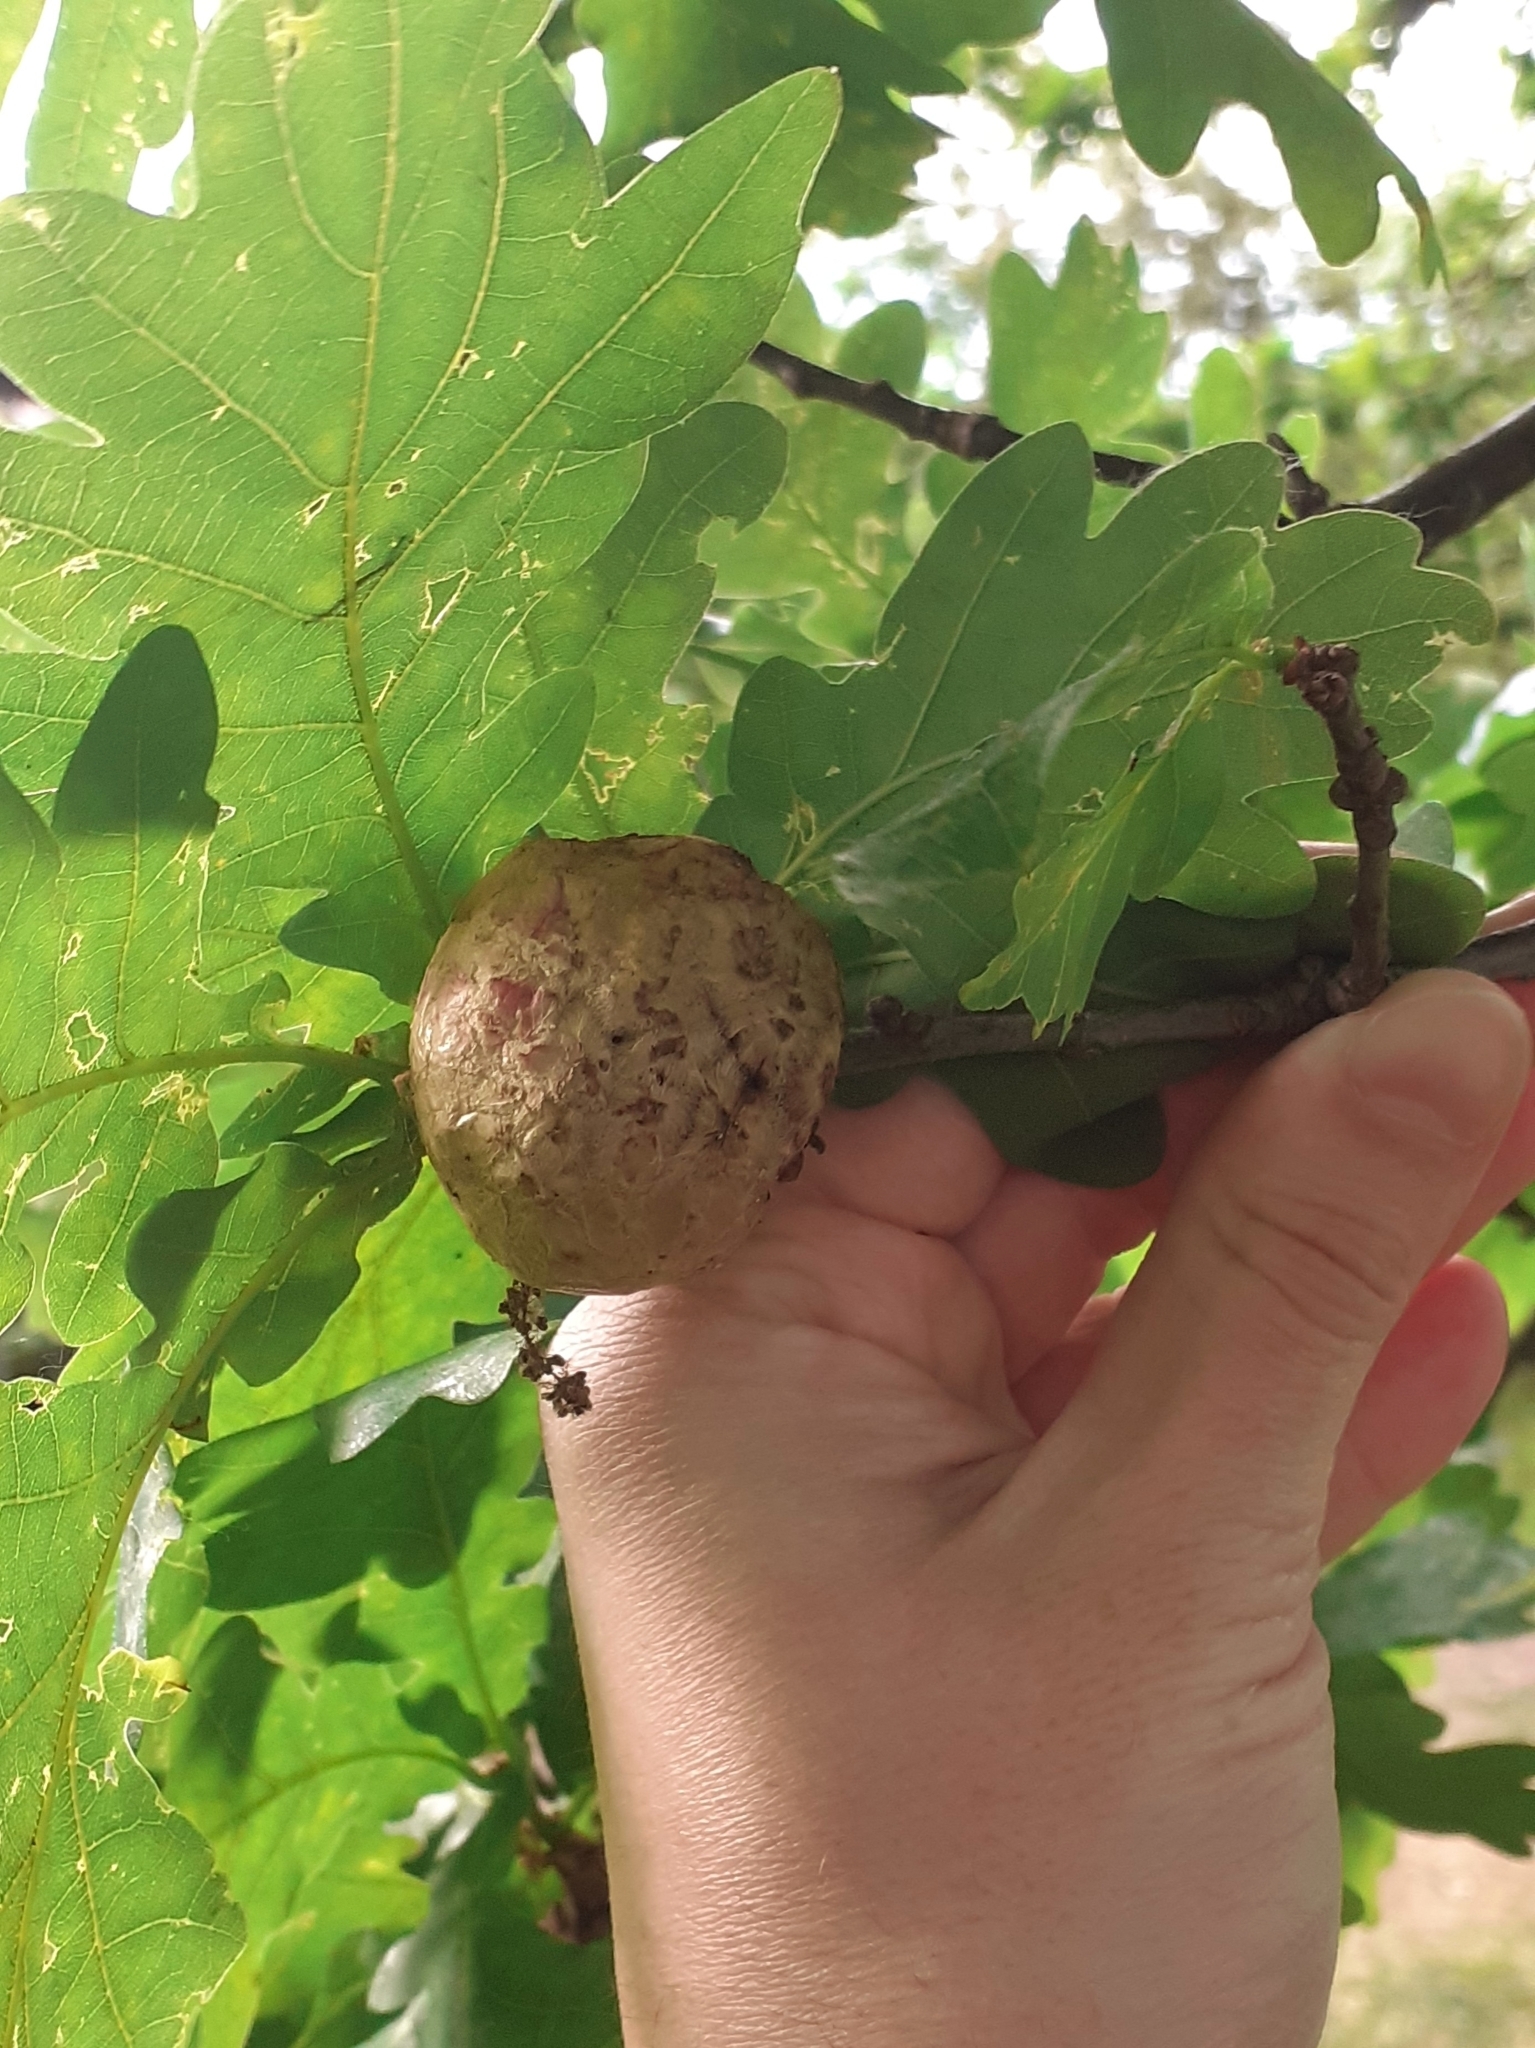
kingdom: Animalia
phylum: Arthropoda
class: Insecta
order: Hymenoptera
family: Cynipidae
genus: Biorhiza
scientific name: Biorhiza pallida
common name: Oak apple
